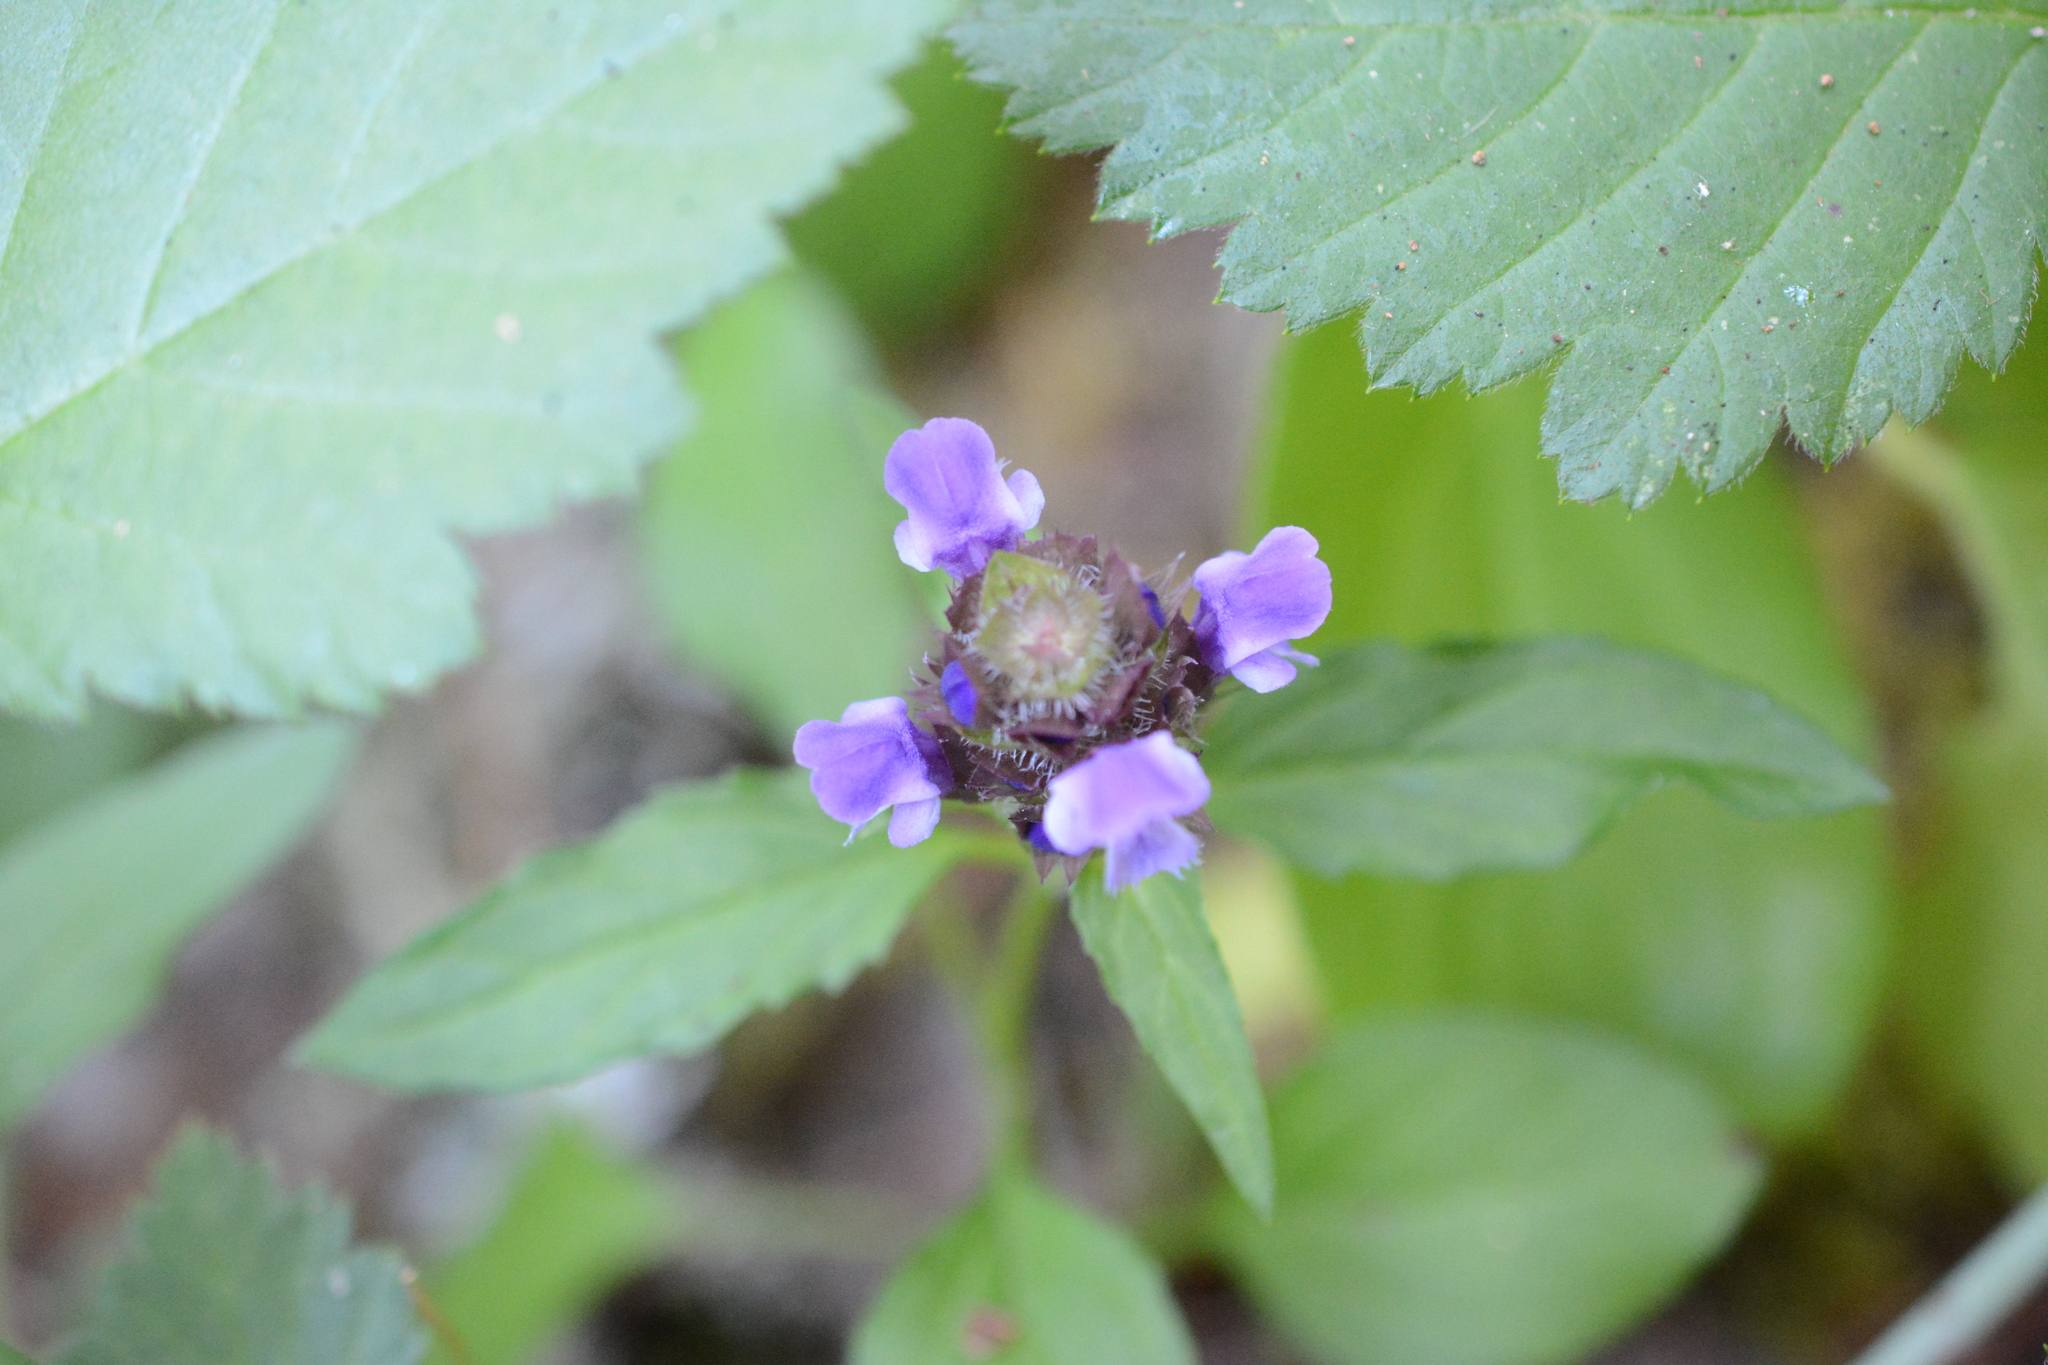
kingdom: Plantae
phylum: Tracheophyta
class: Magnoliopsida
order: Lamiales
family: Lamiaceae
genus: Prunella
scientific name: Prunella vulgaris
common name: Heal-all
